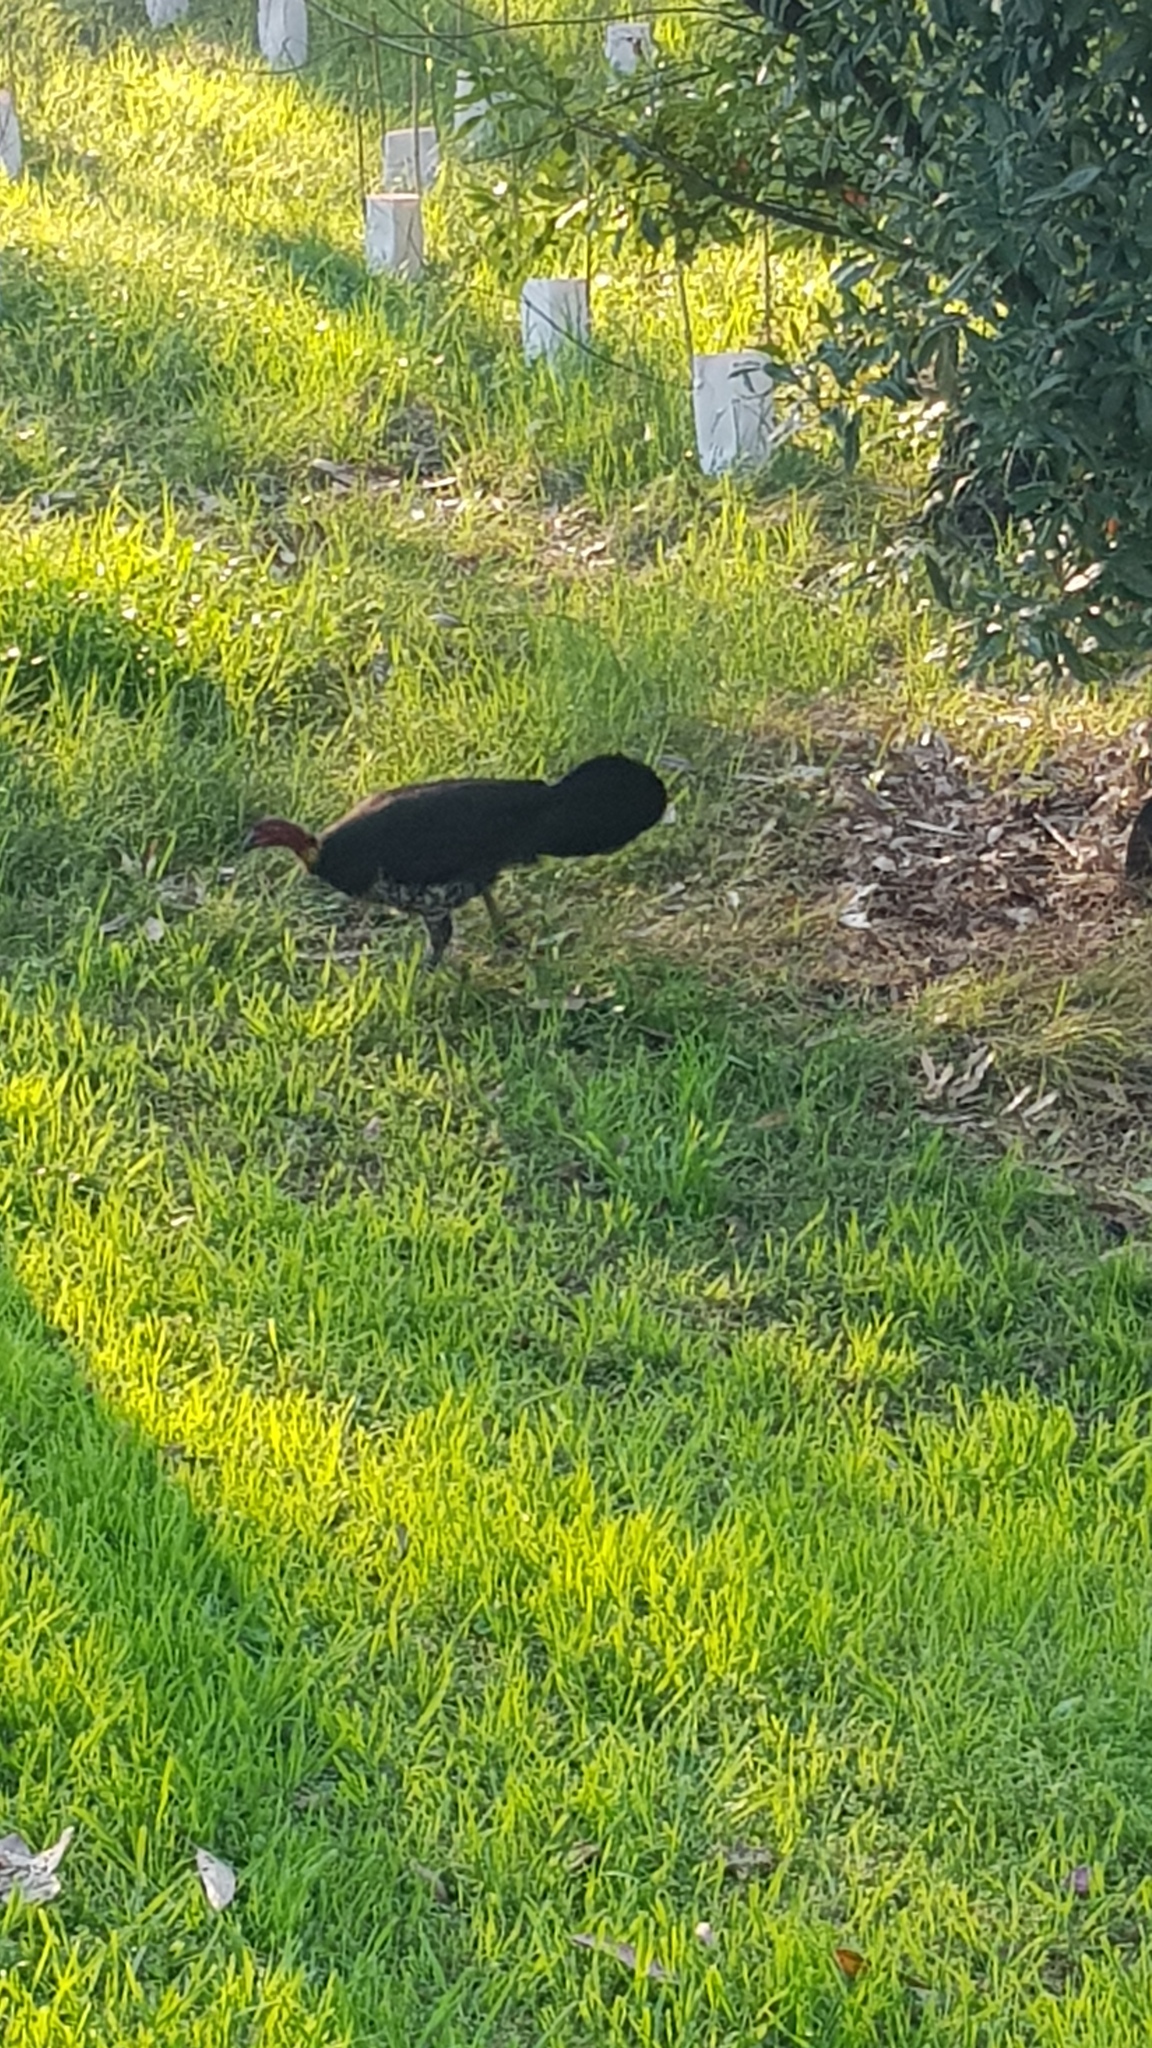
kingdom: Animalia
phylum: Chordata
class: Aves
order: Galliformes
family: Megapodiidae
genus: Alectura
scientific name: Alectura lathami
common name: Australian brushturkey
